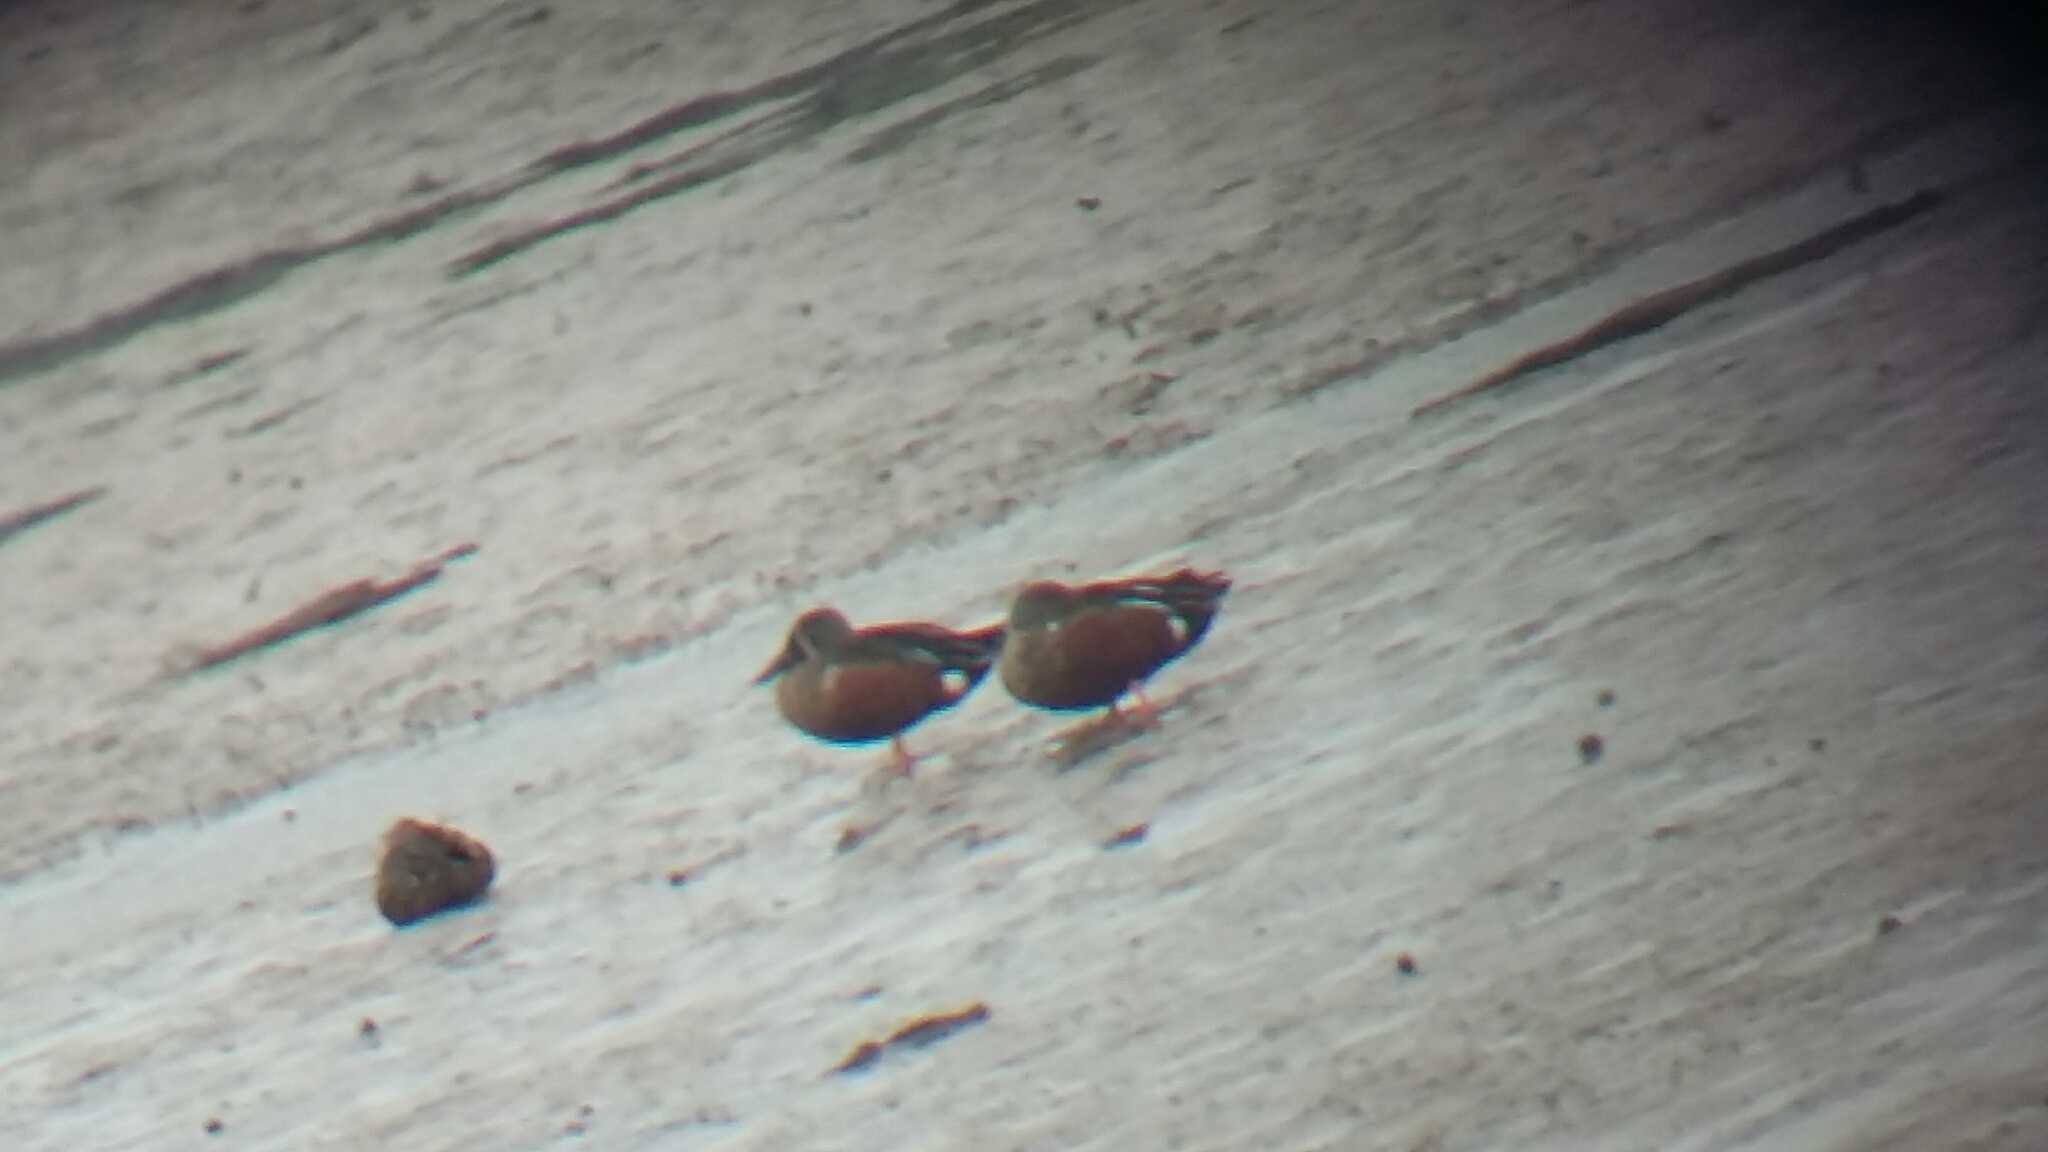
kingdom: Animalia
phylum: Chordata
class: Aves
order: Anseriformes
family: Anatidae
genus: Spatula
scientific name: Spatula rhynchotis
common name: Australian shoveler
